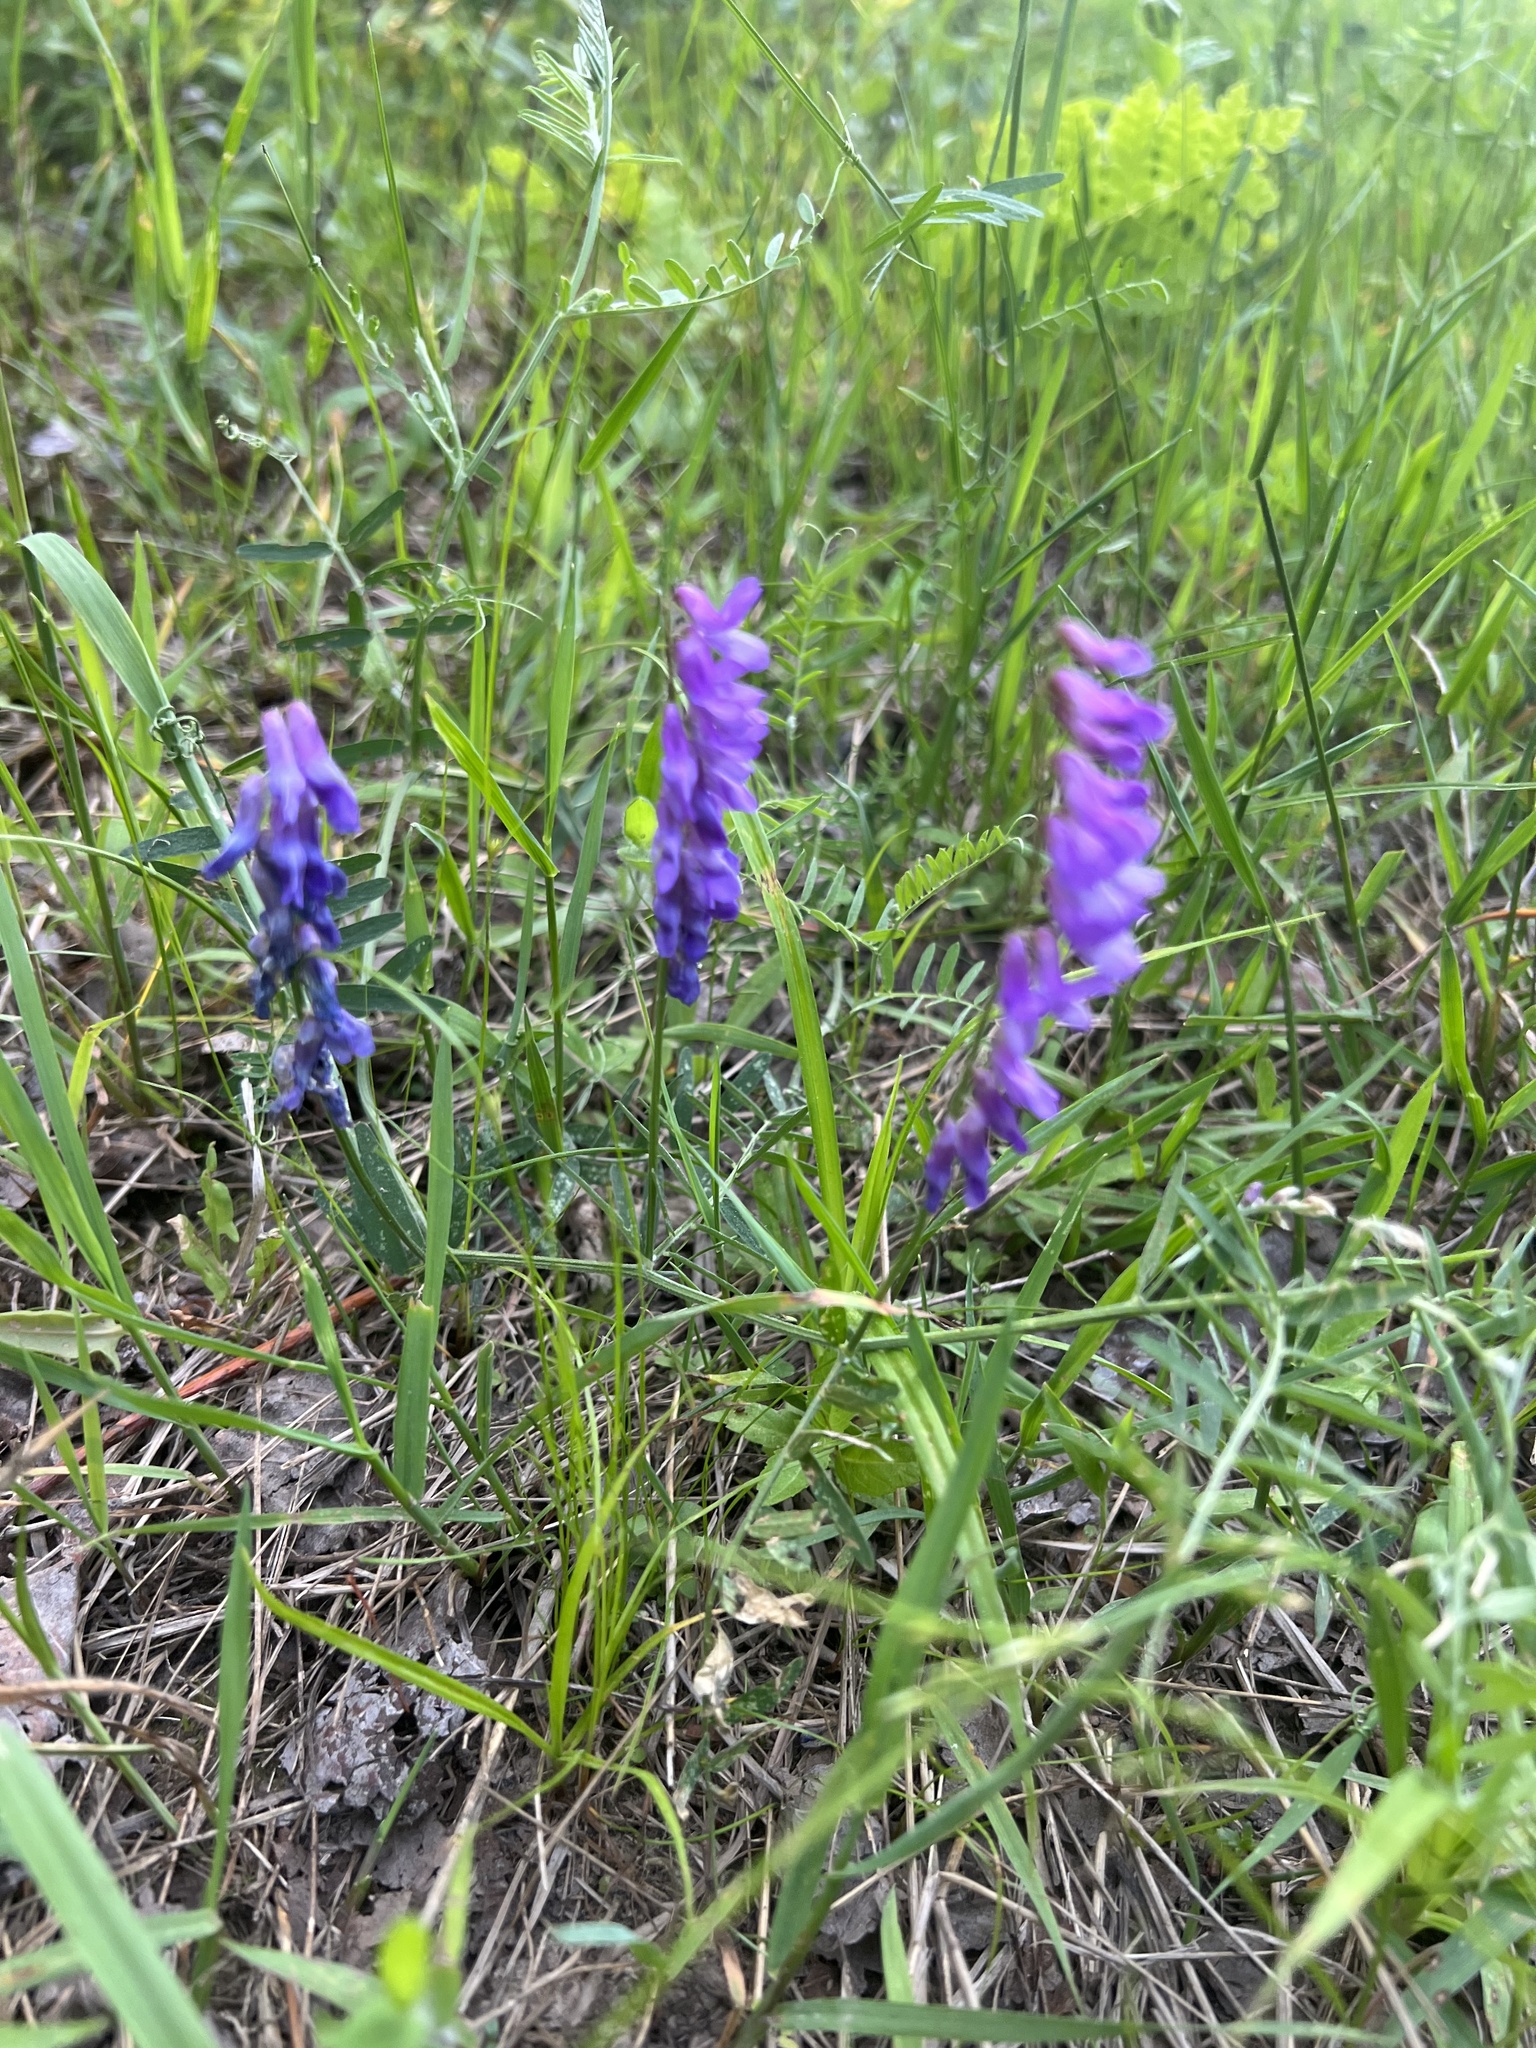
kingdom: Plantae
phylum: Tracheophyta
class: Magnoliopsida
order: Fabales
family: Fabaceae
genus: Vicia
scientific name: Vicia cracca
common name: Bird vetch
